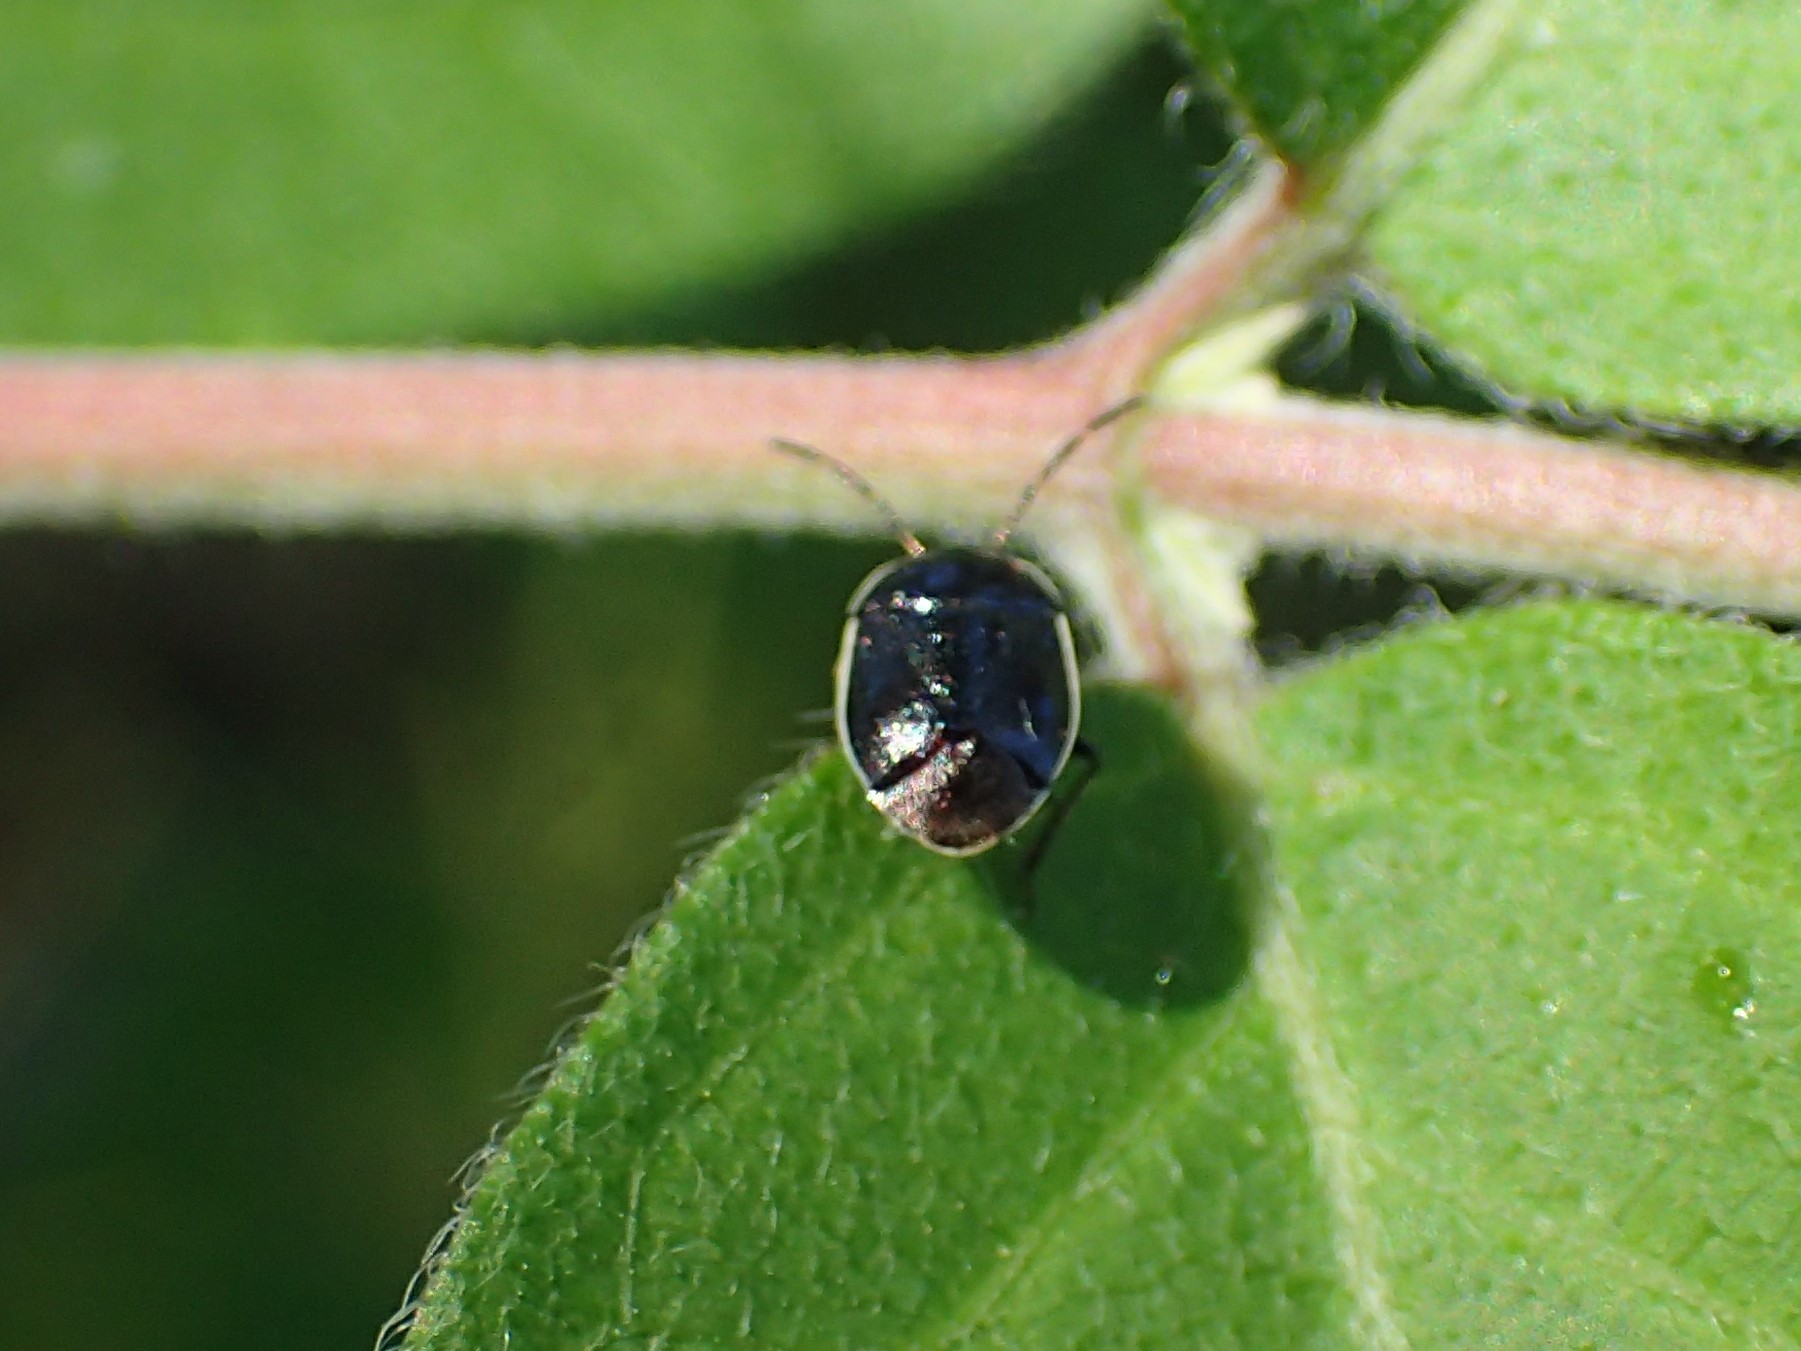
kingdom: Animalia
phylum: Arthropoda
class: Insecta
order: Hemiptera
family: Cydnidae
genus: Sehirus
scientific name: Sehirus cinctus
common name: White-margined burrower bug
